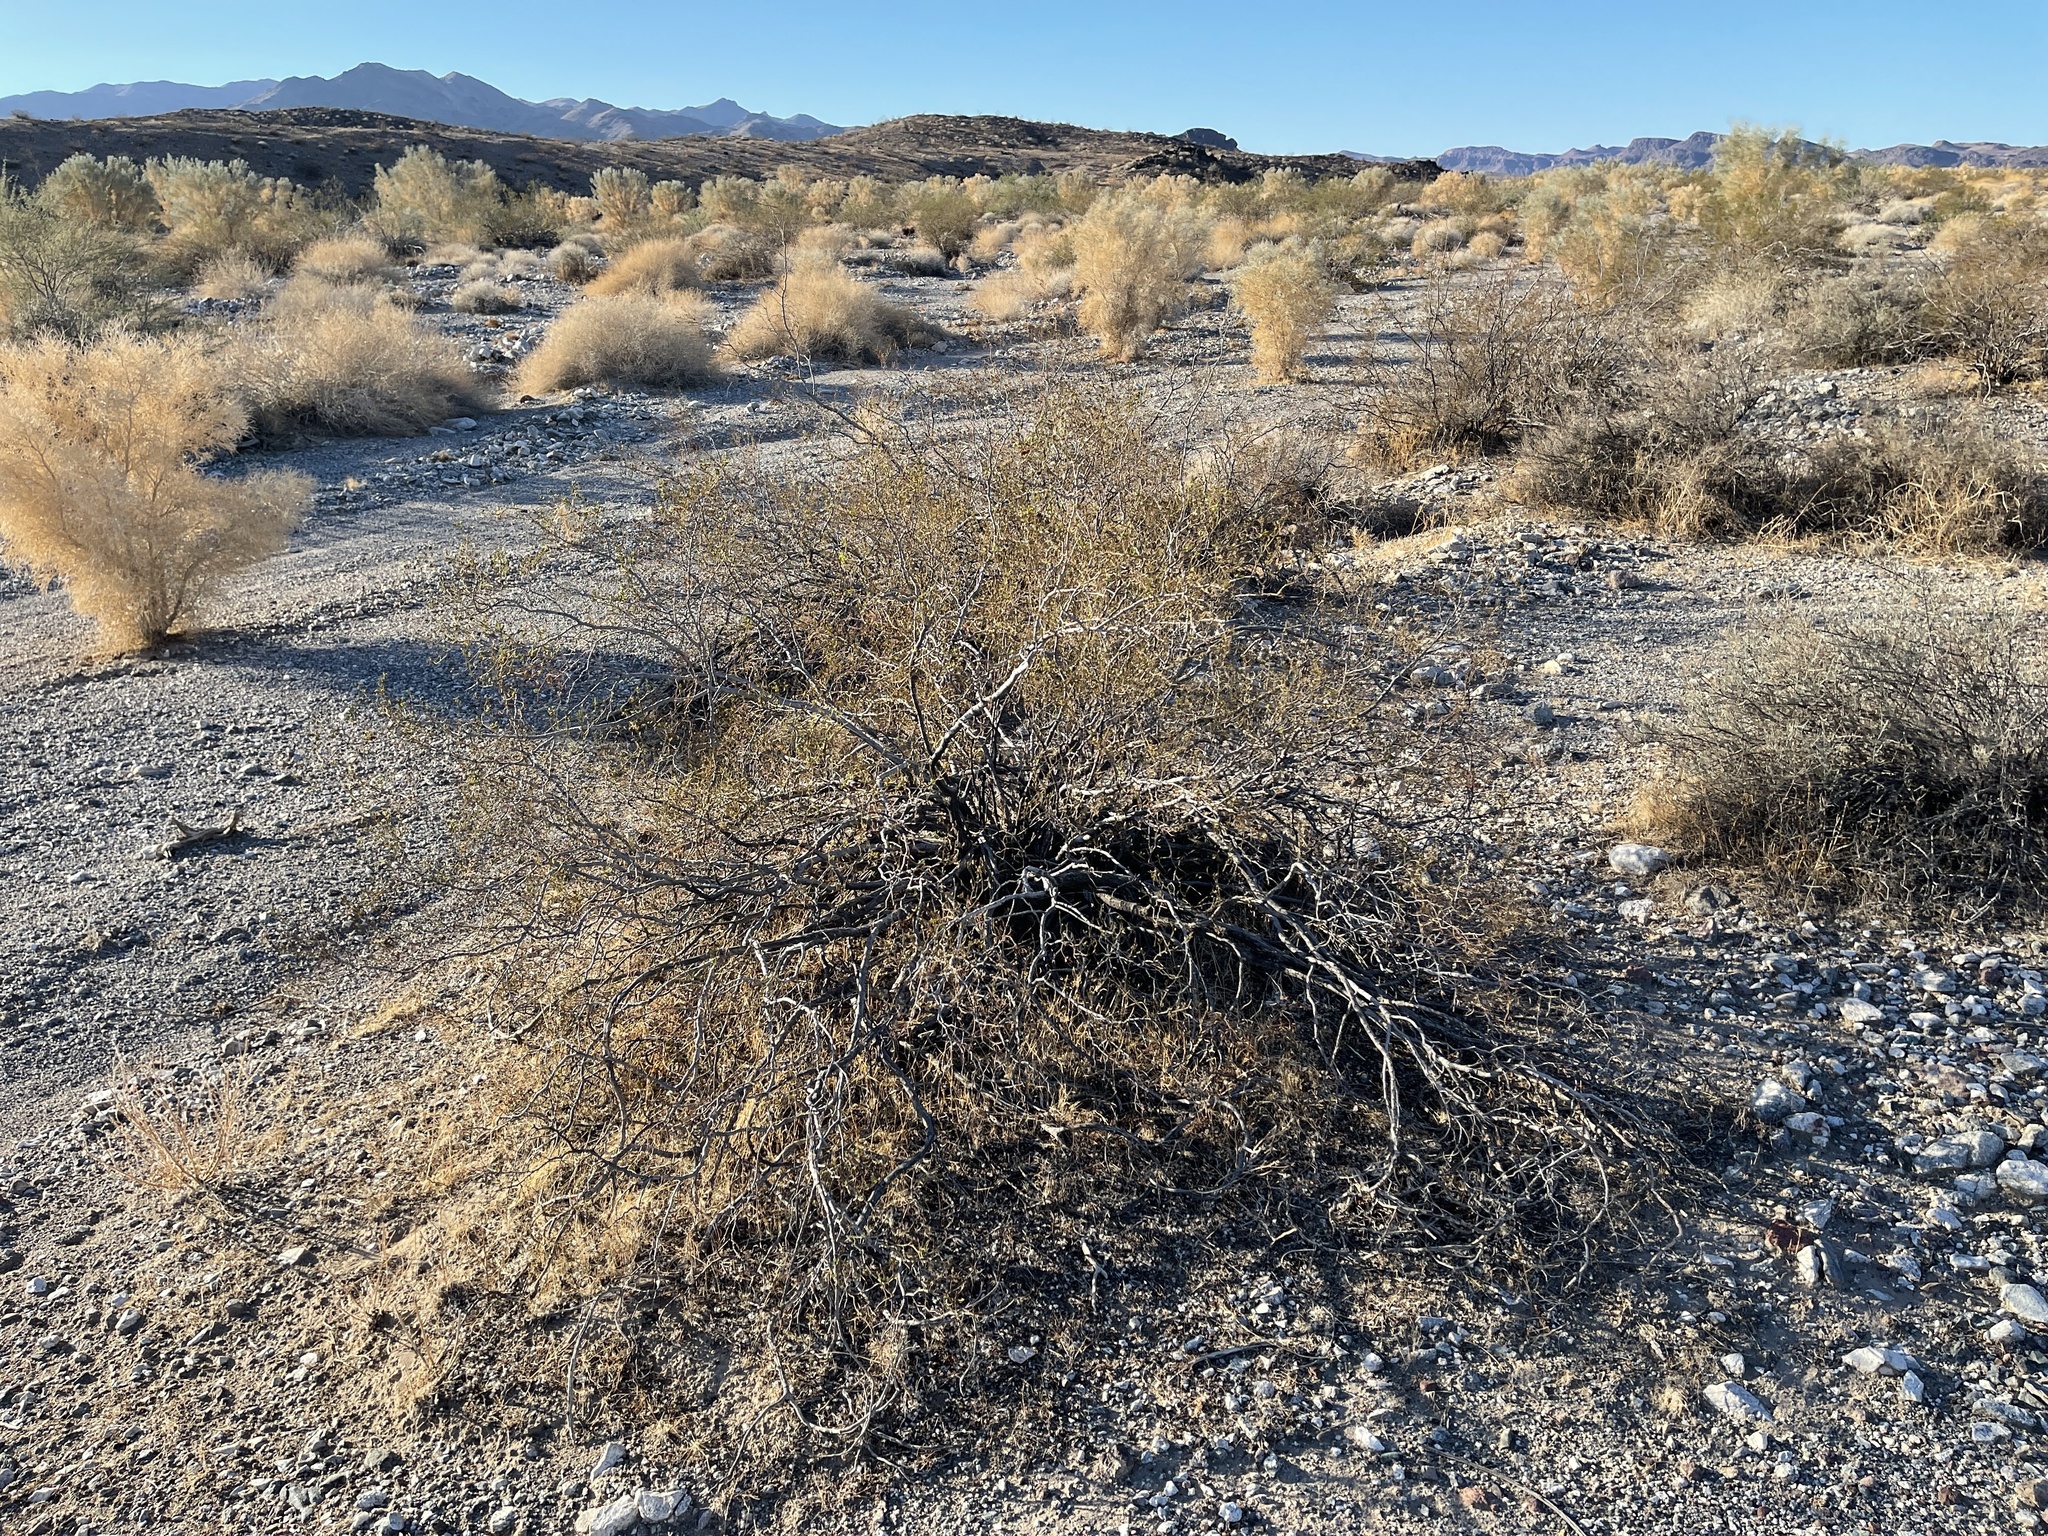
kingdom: Plantae
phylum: Tracheophyta
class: Magnoliopsida
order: Zygophyllales
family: Zygophyllaceae
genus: Larrea
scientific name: Larrea tridentata
